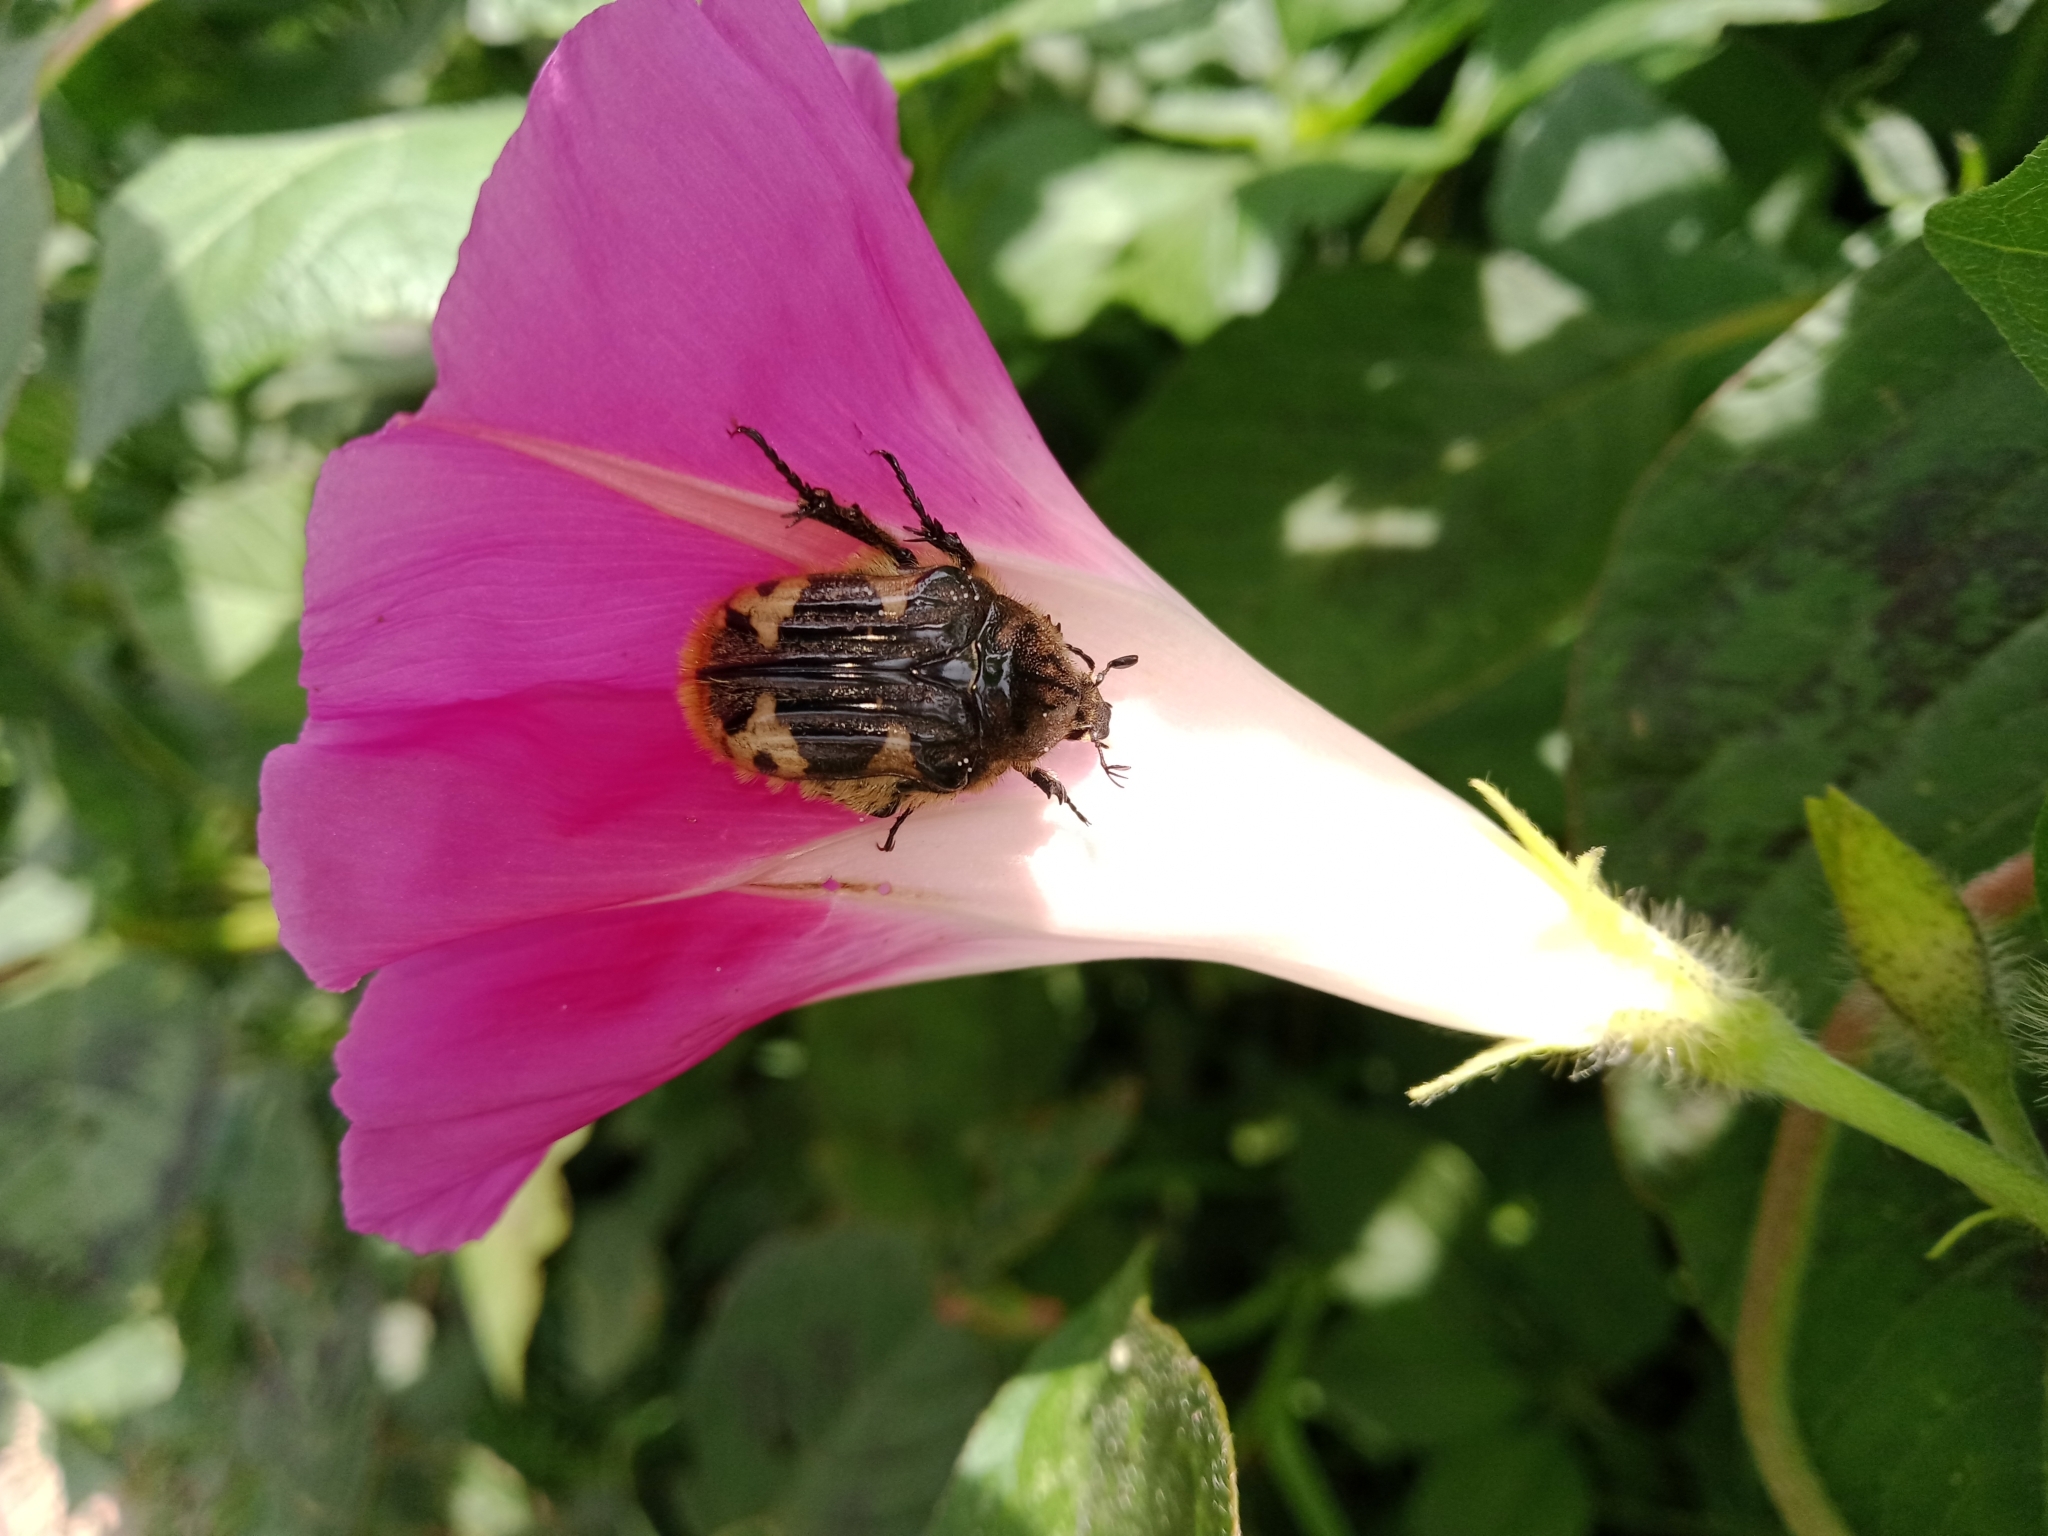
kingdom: Animalia
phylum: Arthropoda
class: Insecta
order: Coleoptera
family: Scarabaeidae
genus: Euphoria
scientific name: Euphoria basalis
